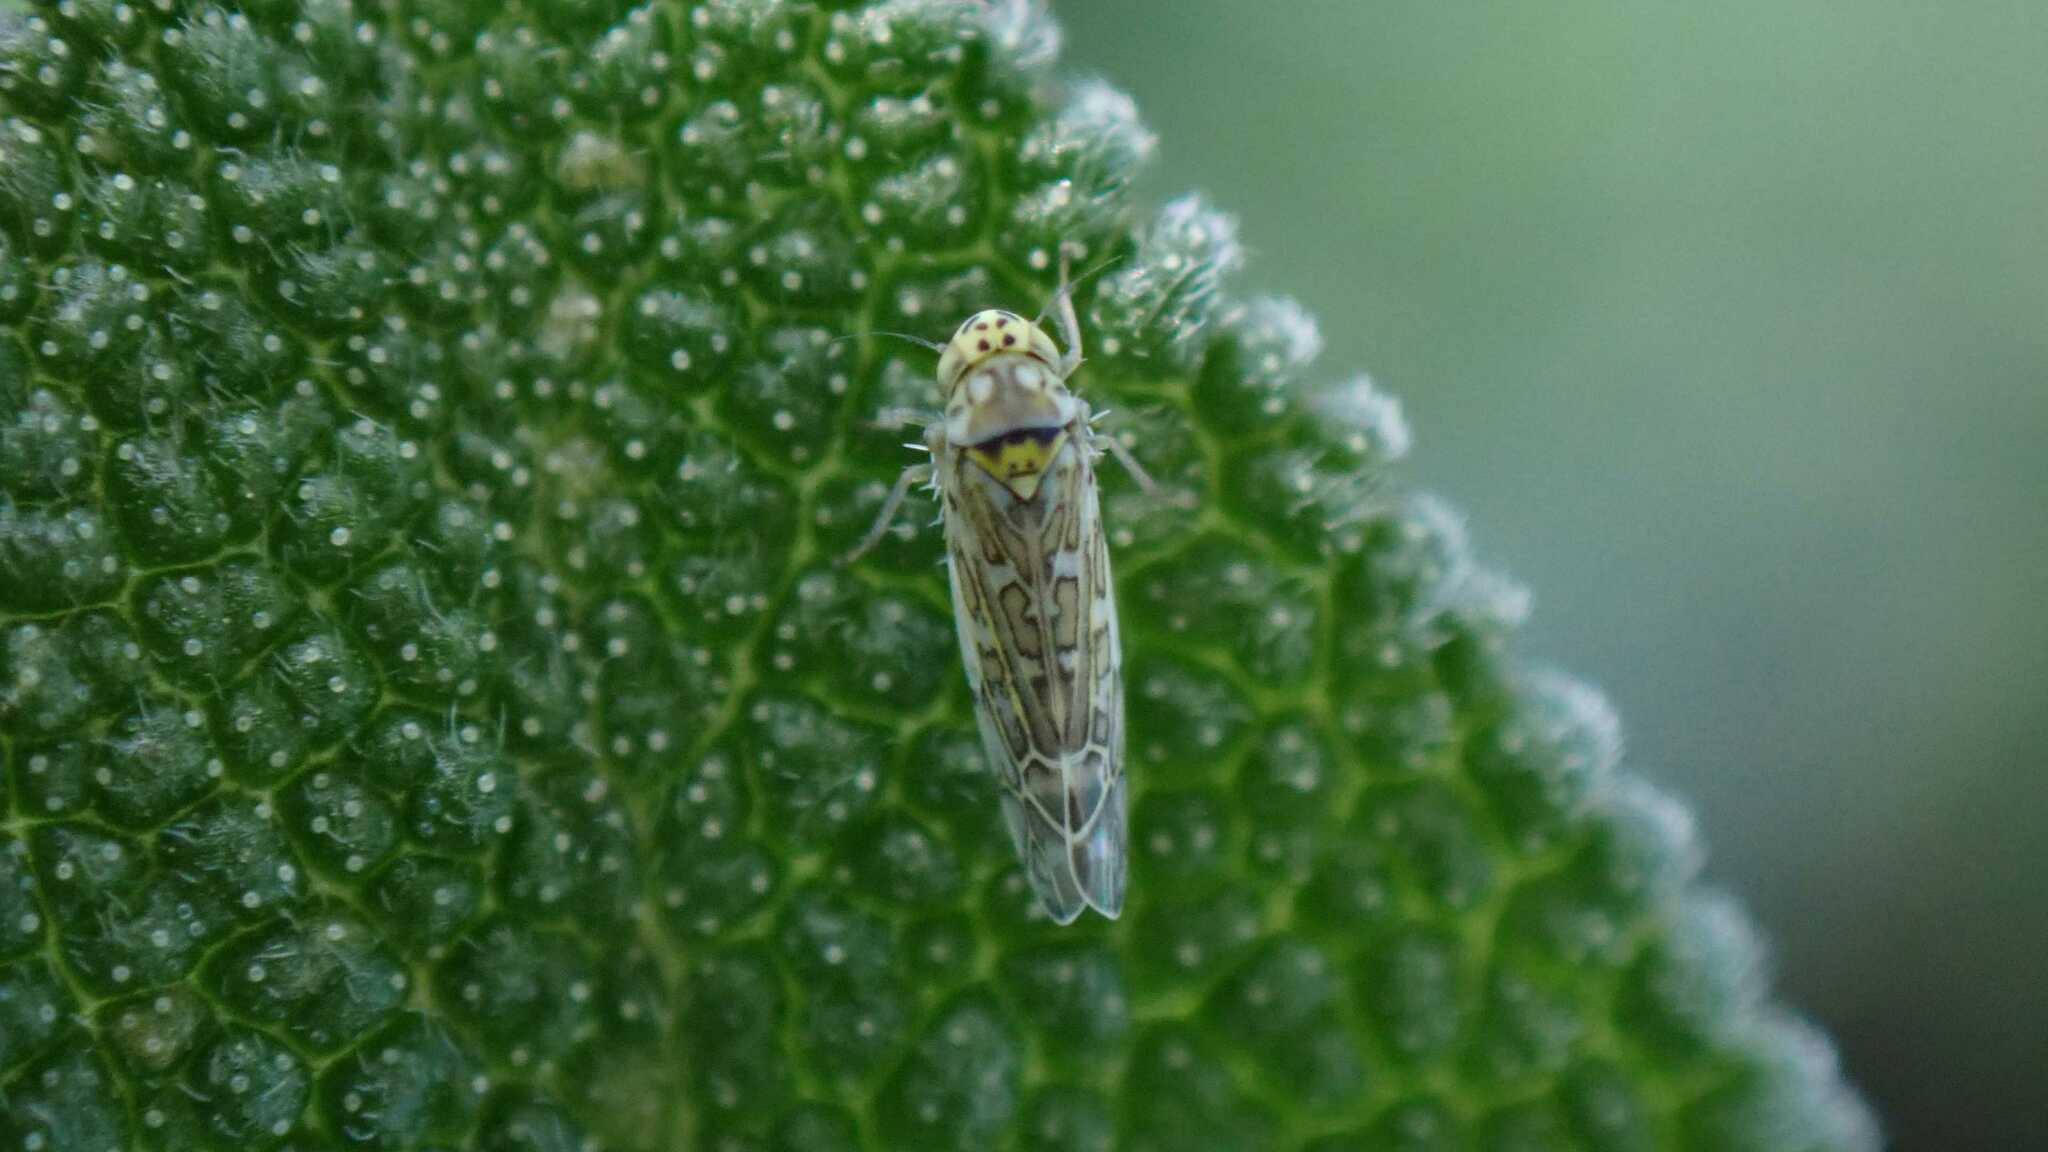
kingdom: Animalia
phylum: Arthropoda
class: Insecta
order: Hemiptera
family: Cicadellidae
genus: Eupteryx
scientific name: Eupteryx decemnotata
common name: Ligurian leafhopper
